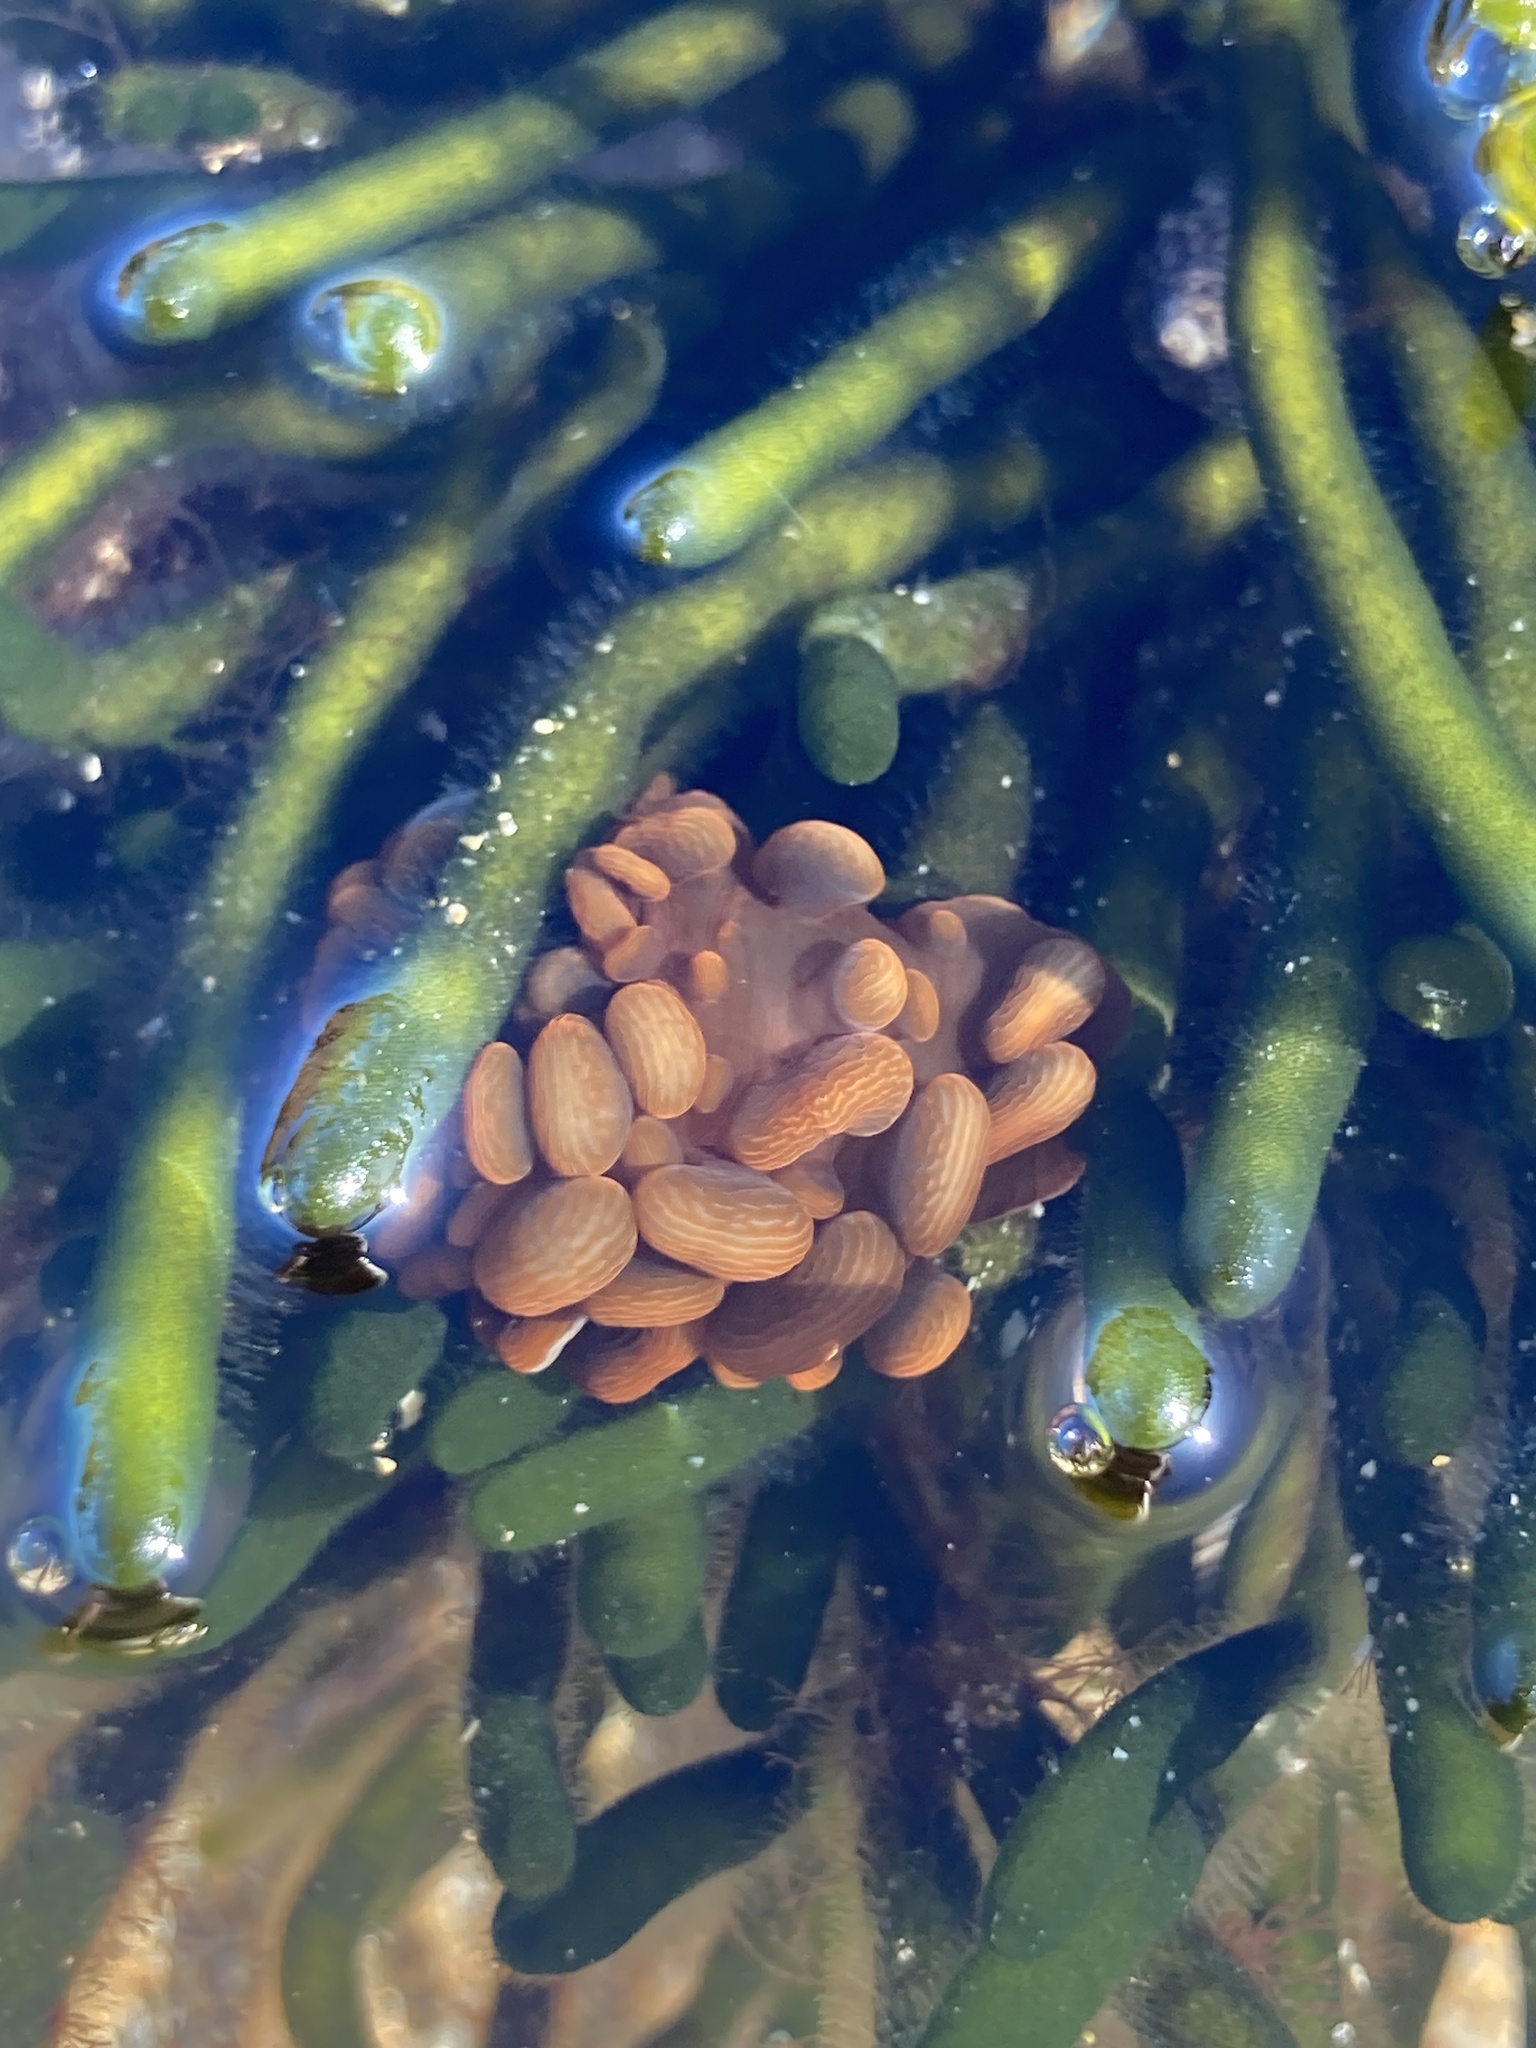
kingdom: Animalia
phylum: Cnidaria
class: Anthozoa
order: Actiniaria
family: Actiniidae
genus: Phlyctenactis
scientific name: Phlyctenactis tuberculosa
